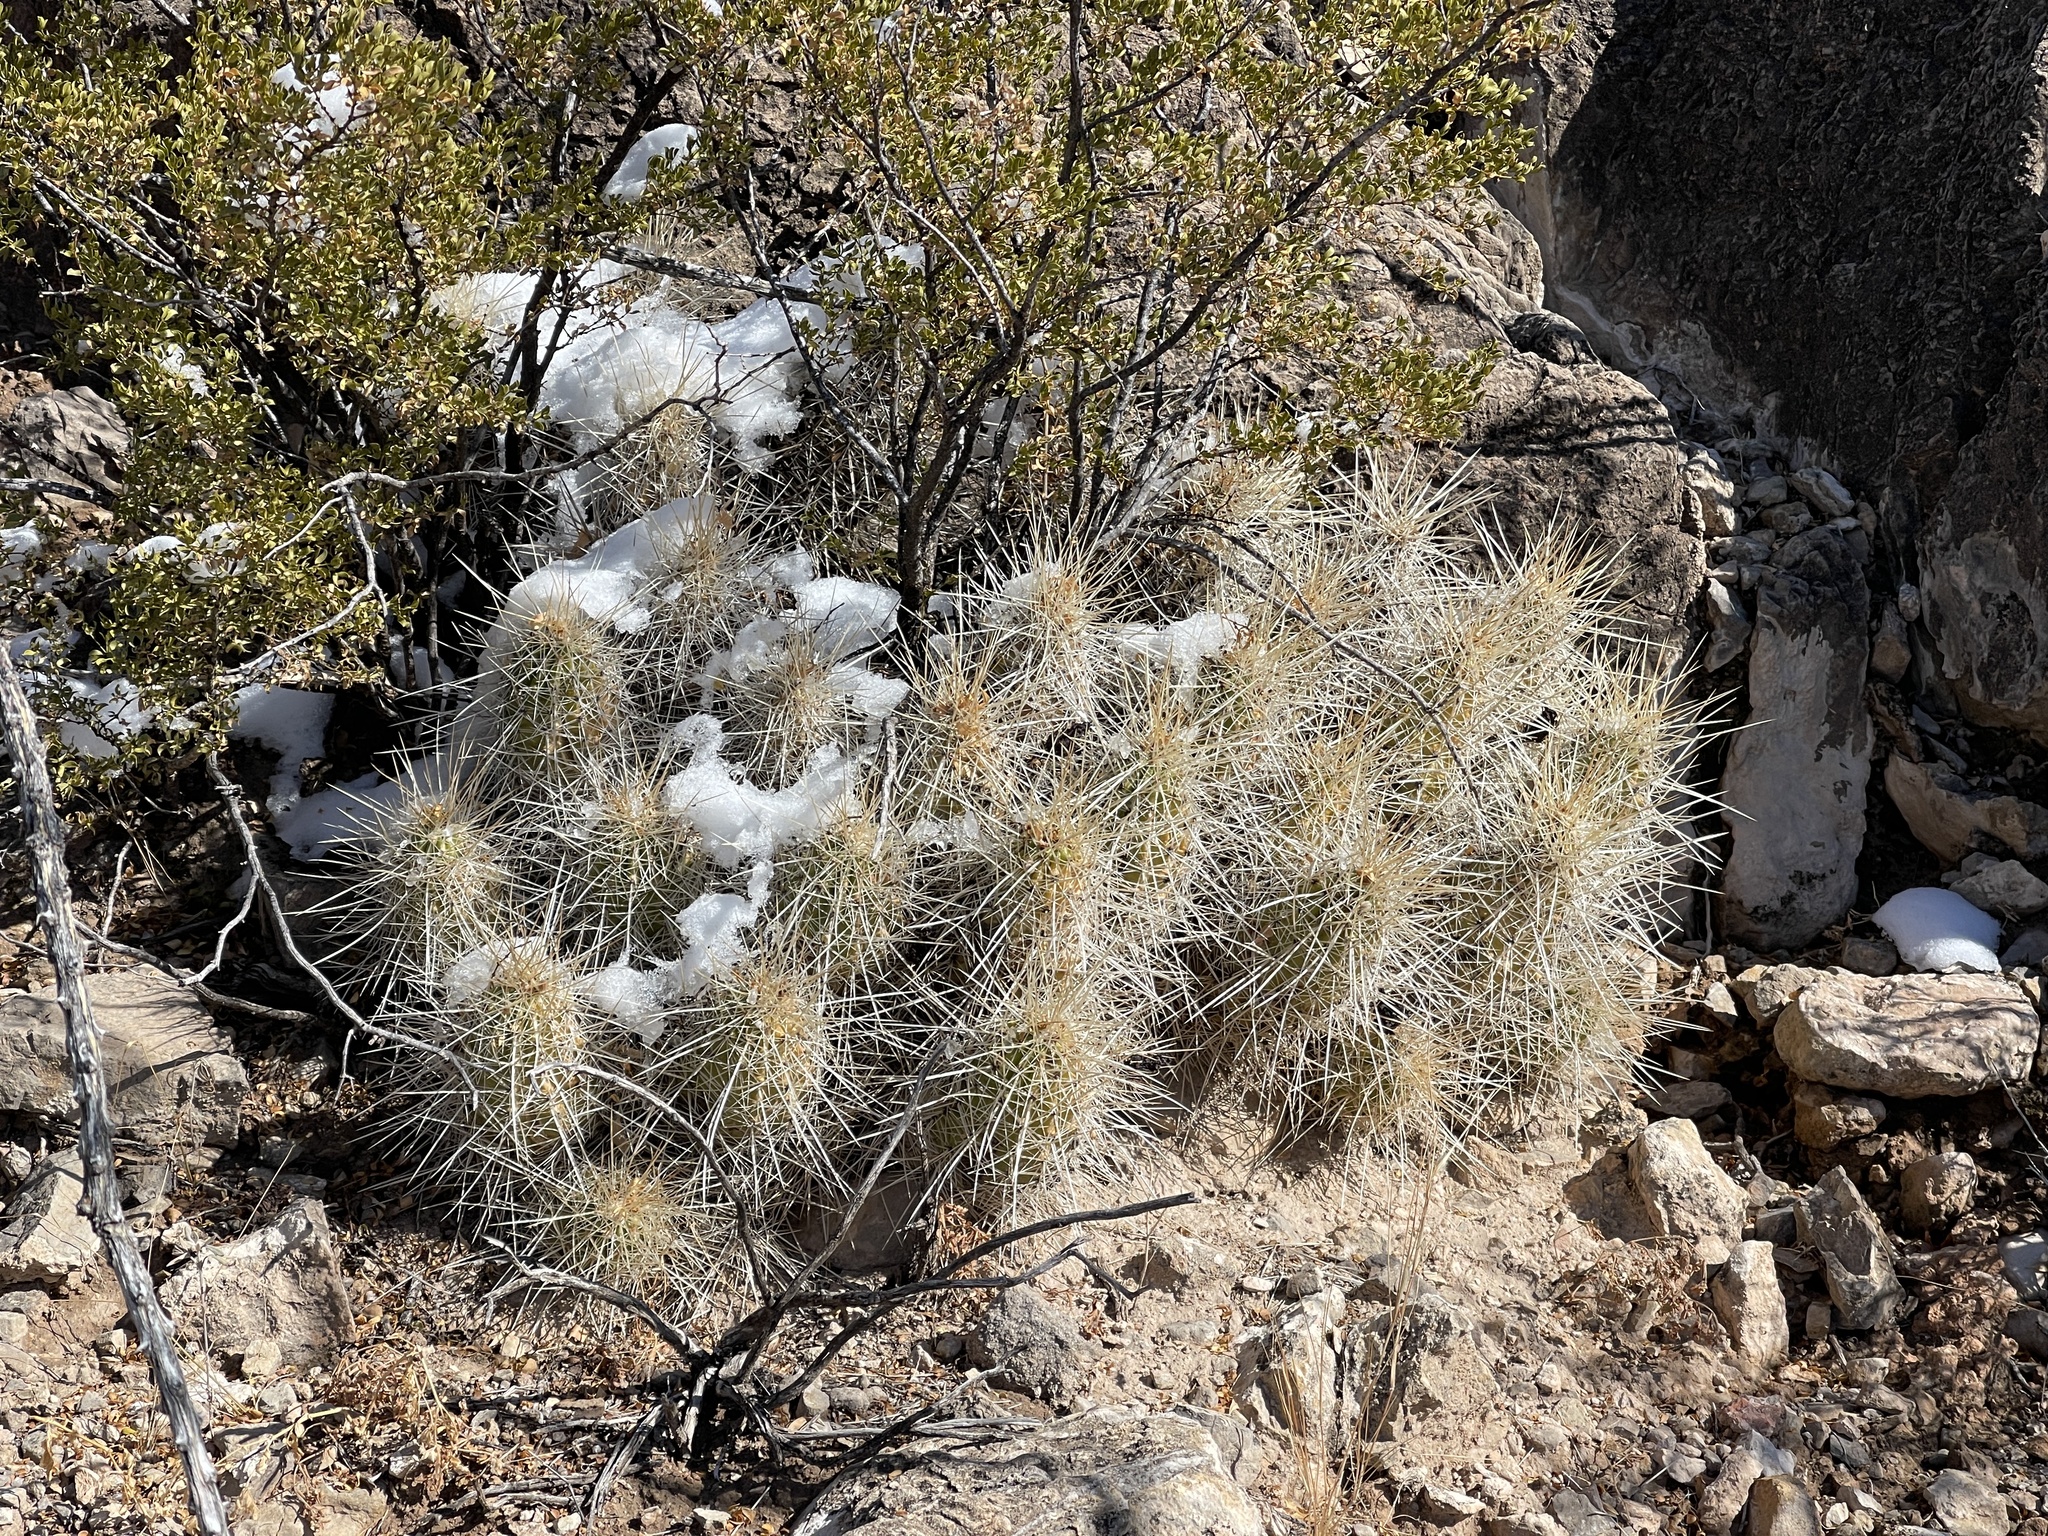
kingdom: Plantae
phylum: Tracheophyta
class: Magnoliopsida
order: Caryophyllales
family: Cactaceae
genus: Echinocereus
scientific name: Echinocereus stramineus
